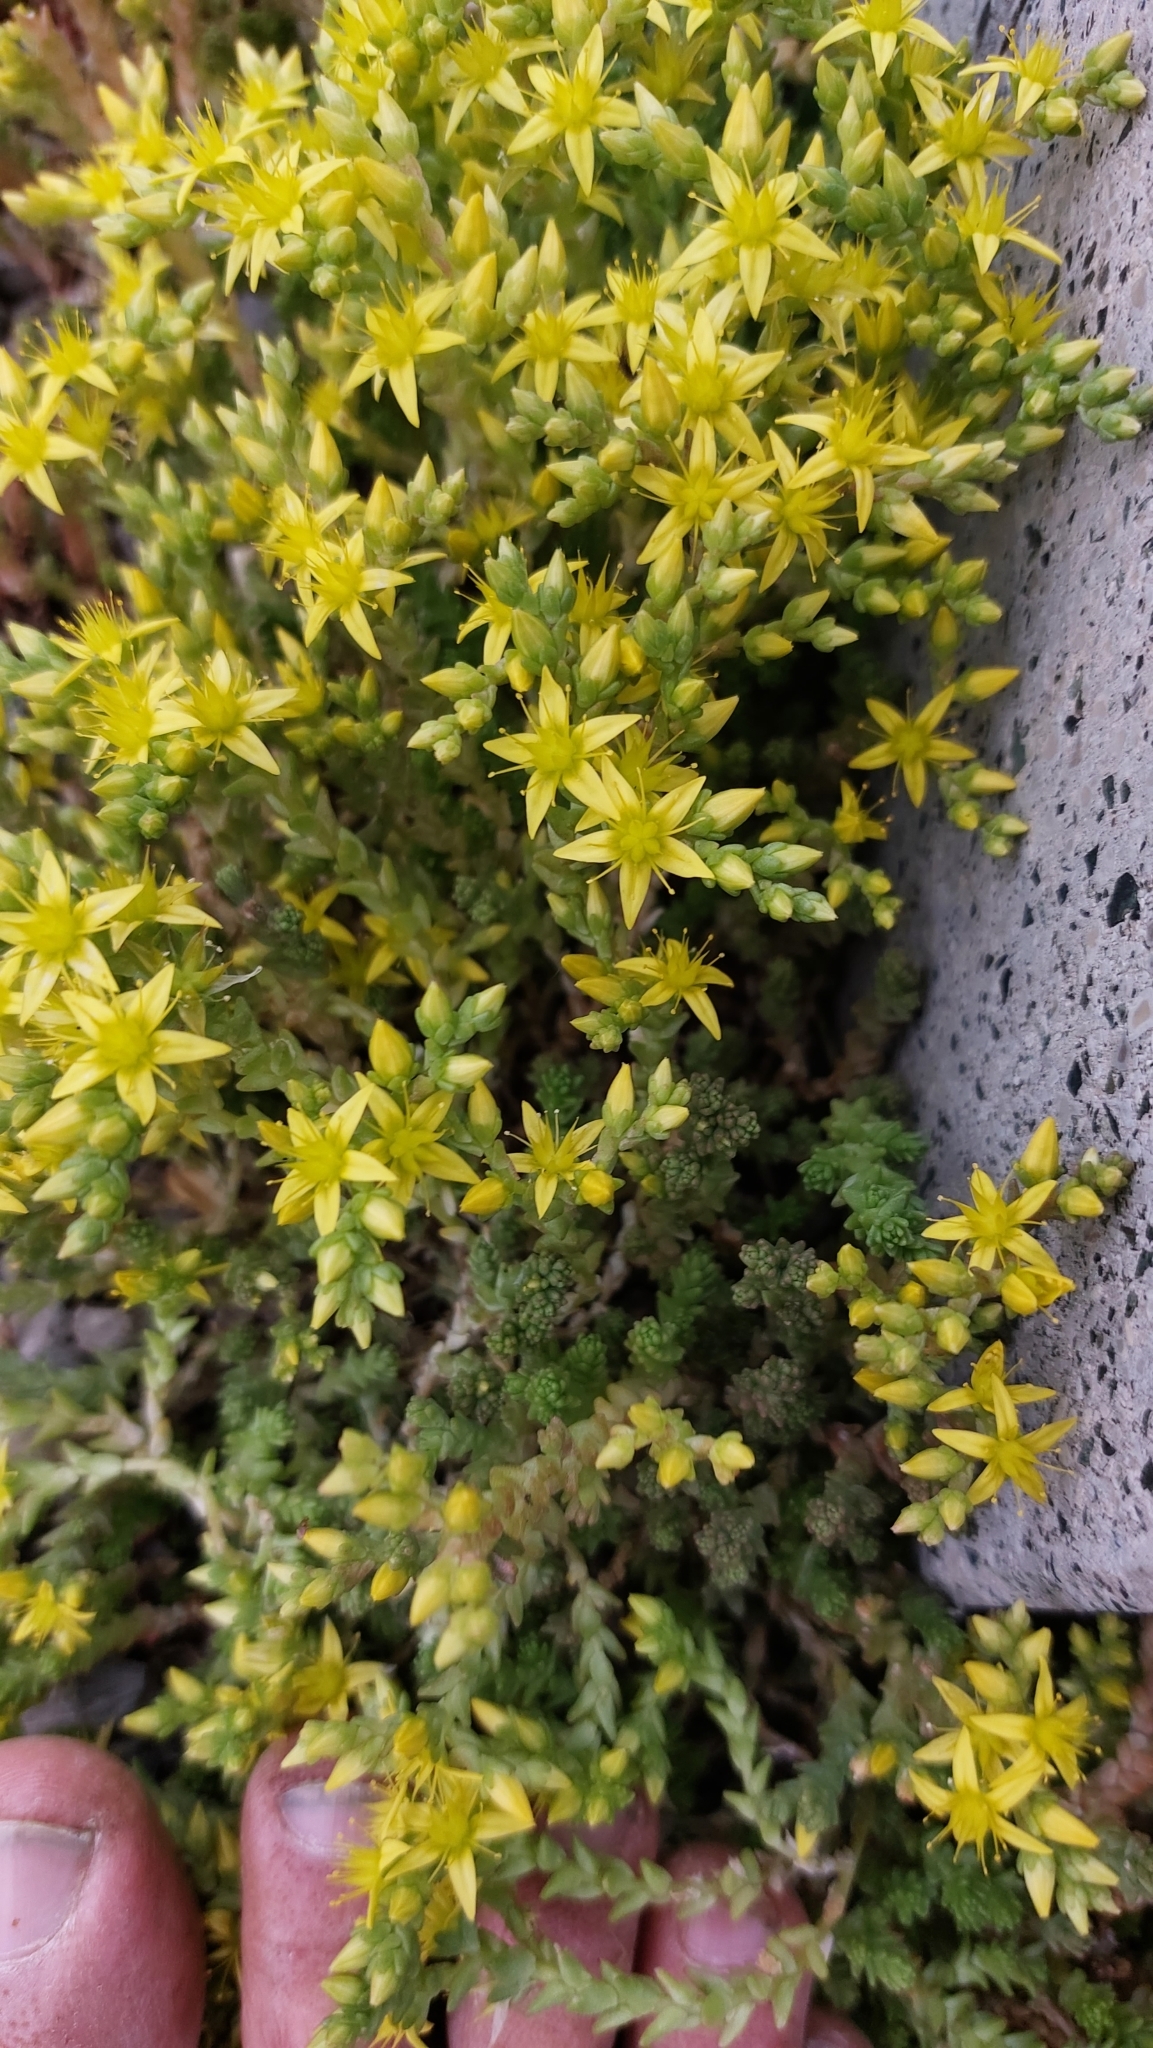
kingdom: Plantae
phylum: Tracheophyta
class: Magnoliopsida
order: Saxifragales
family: Crassulaceae
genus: Sedum
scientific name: Sedum acre
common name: Biting stonecrop
